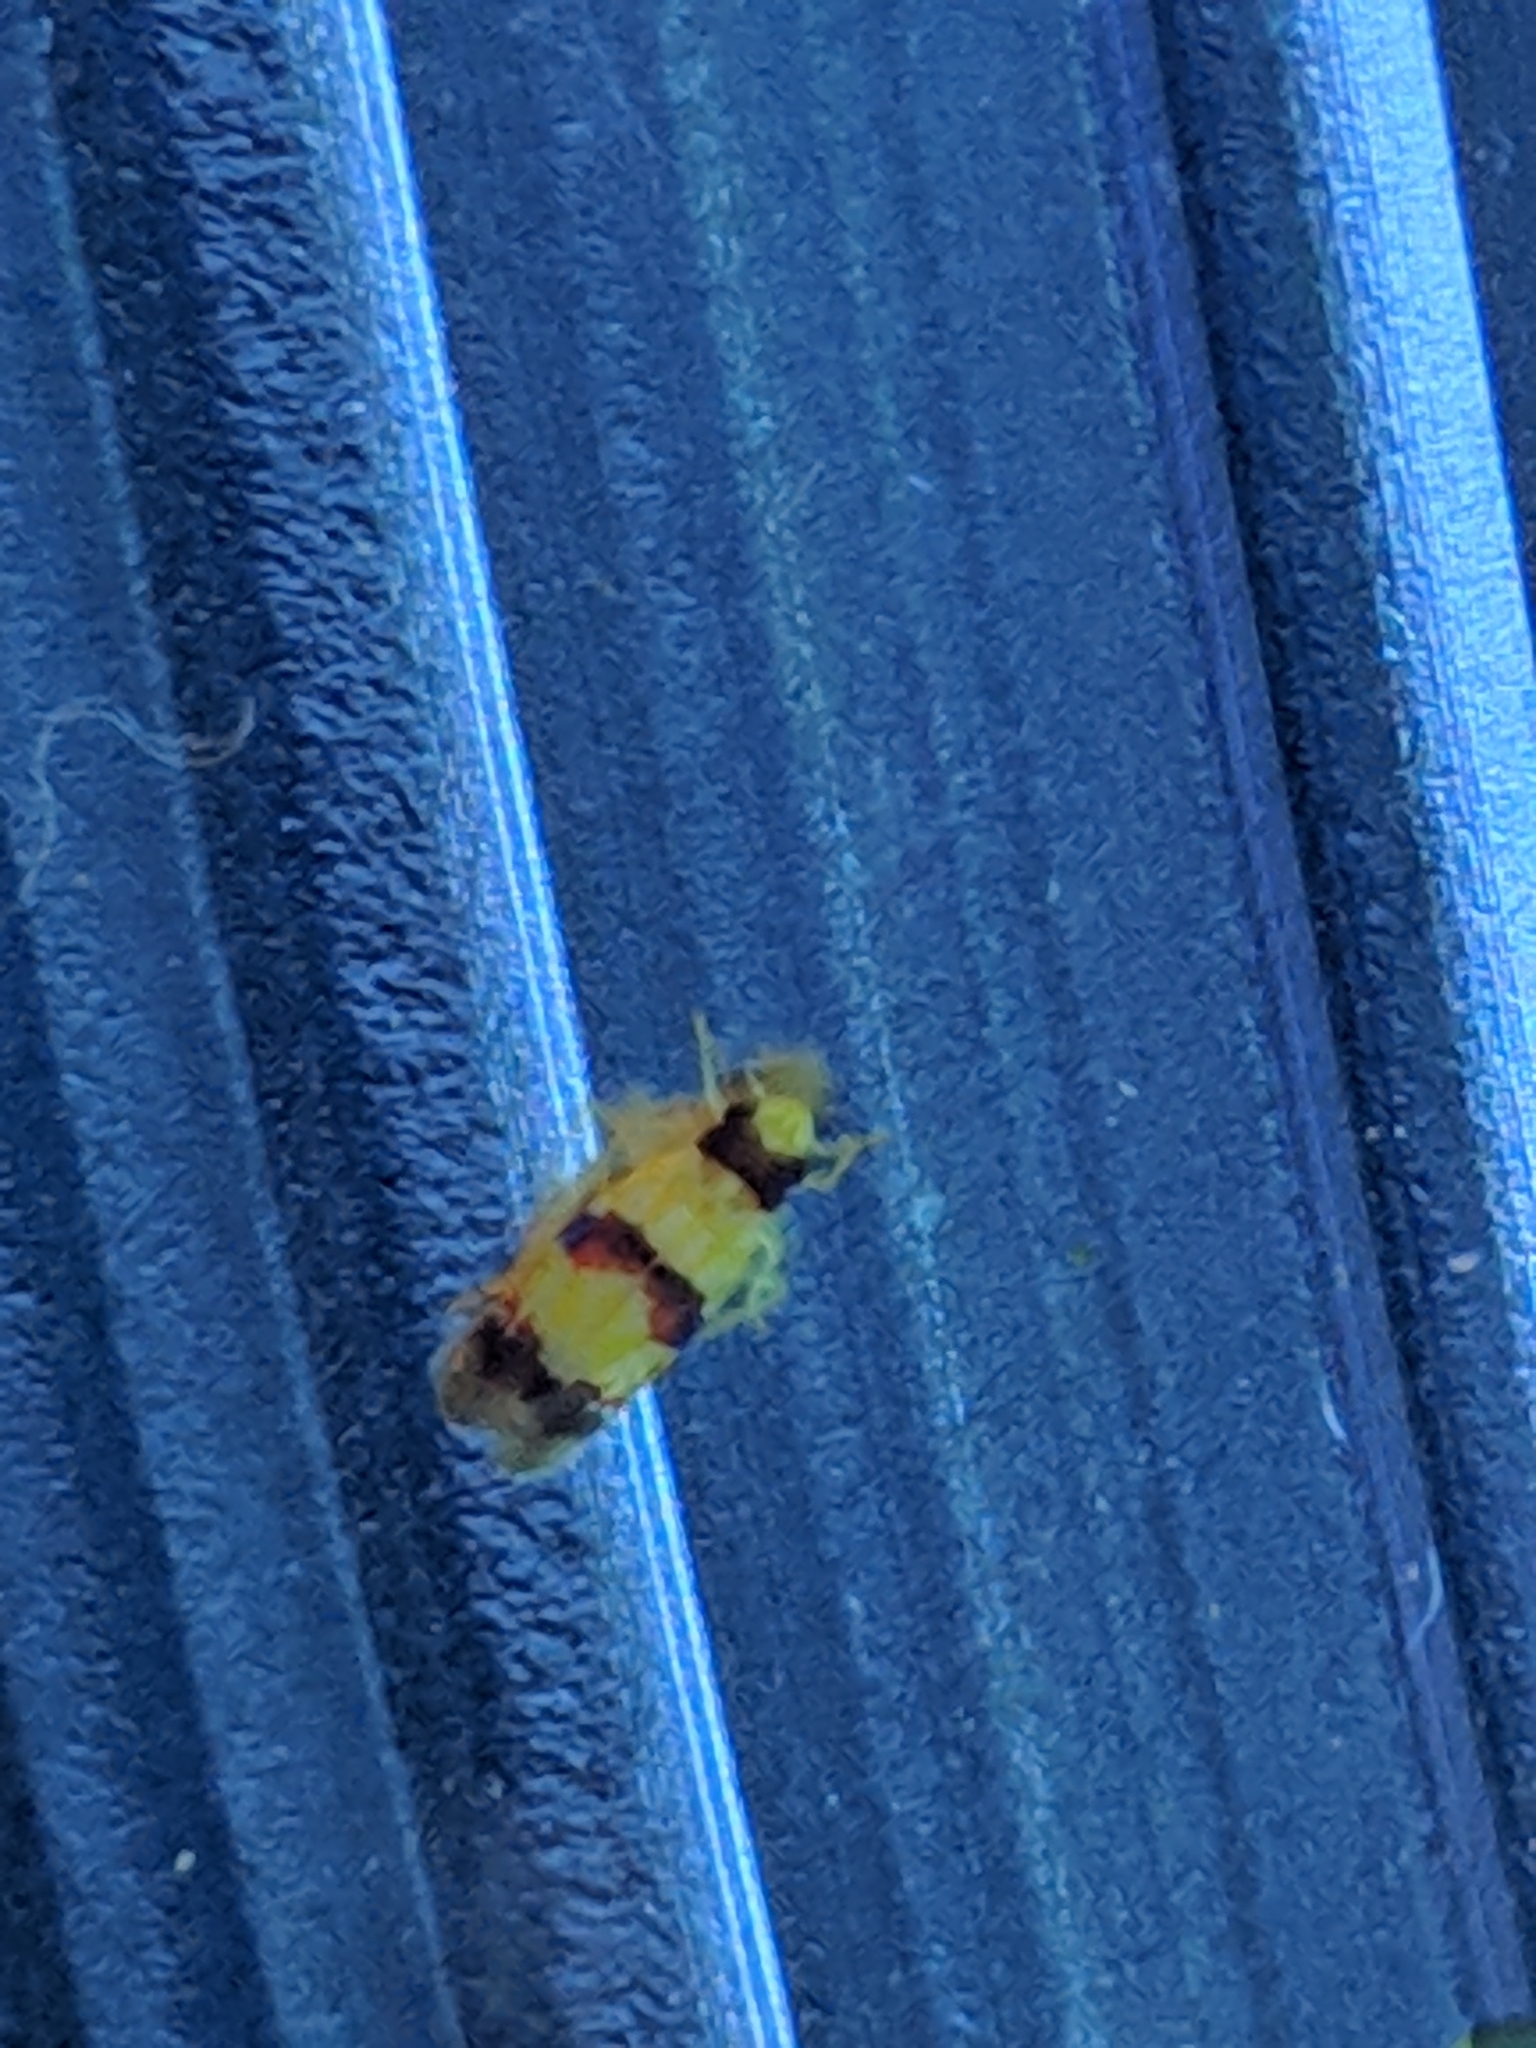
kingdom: Animalia
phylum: Arthropoda
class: Insecta
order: Hemiptera
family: Cicadellidae
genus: Erythroneura
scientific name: Erythroneura integra
